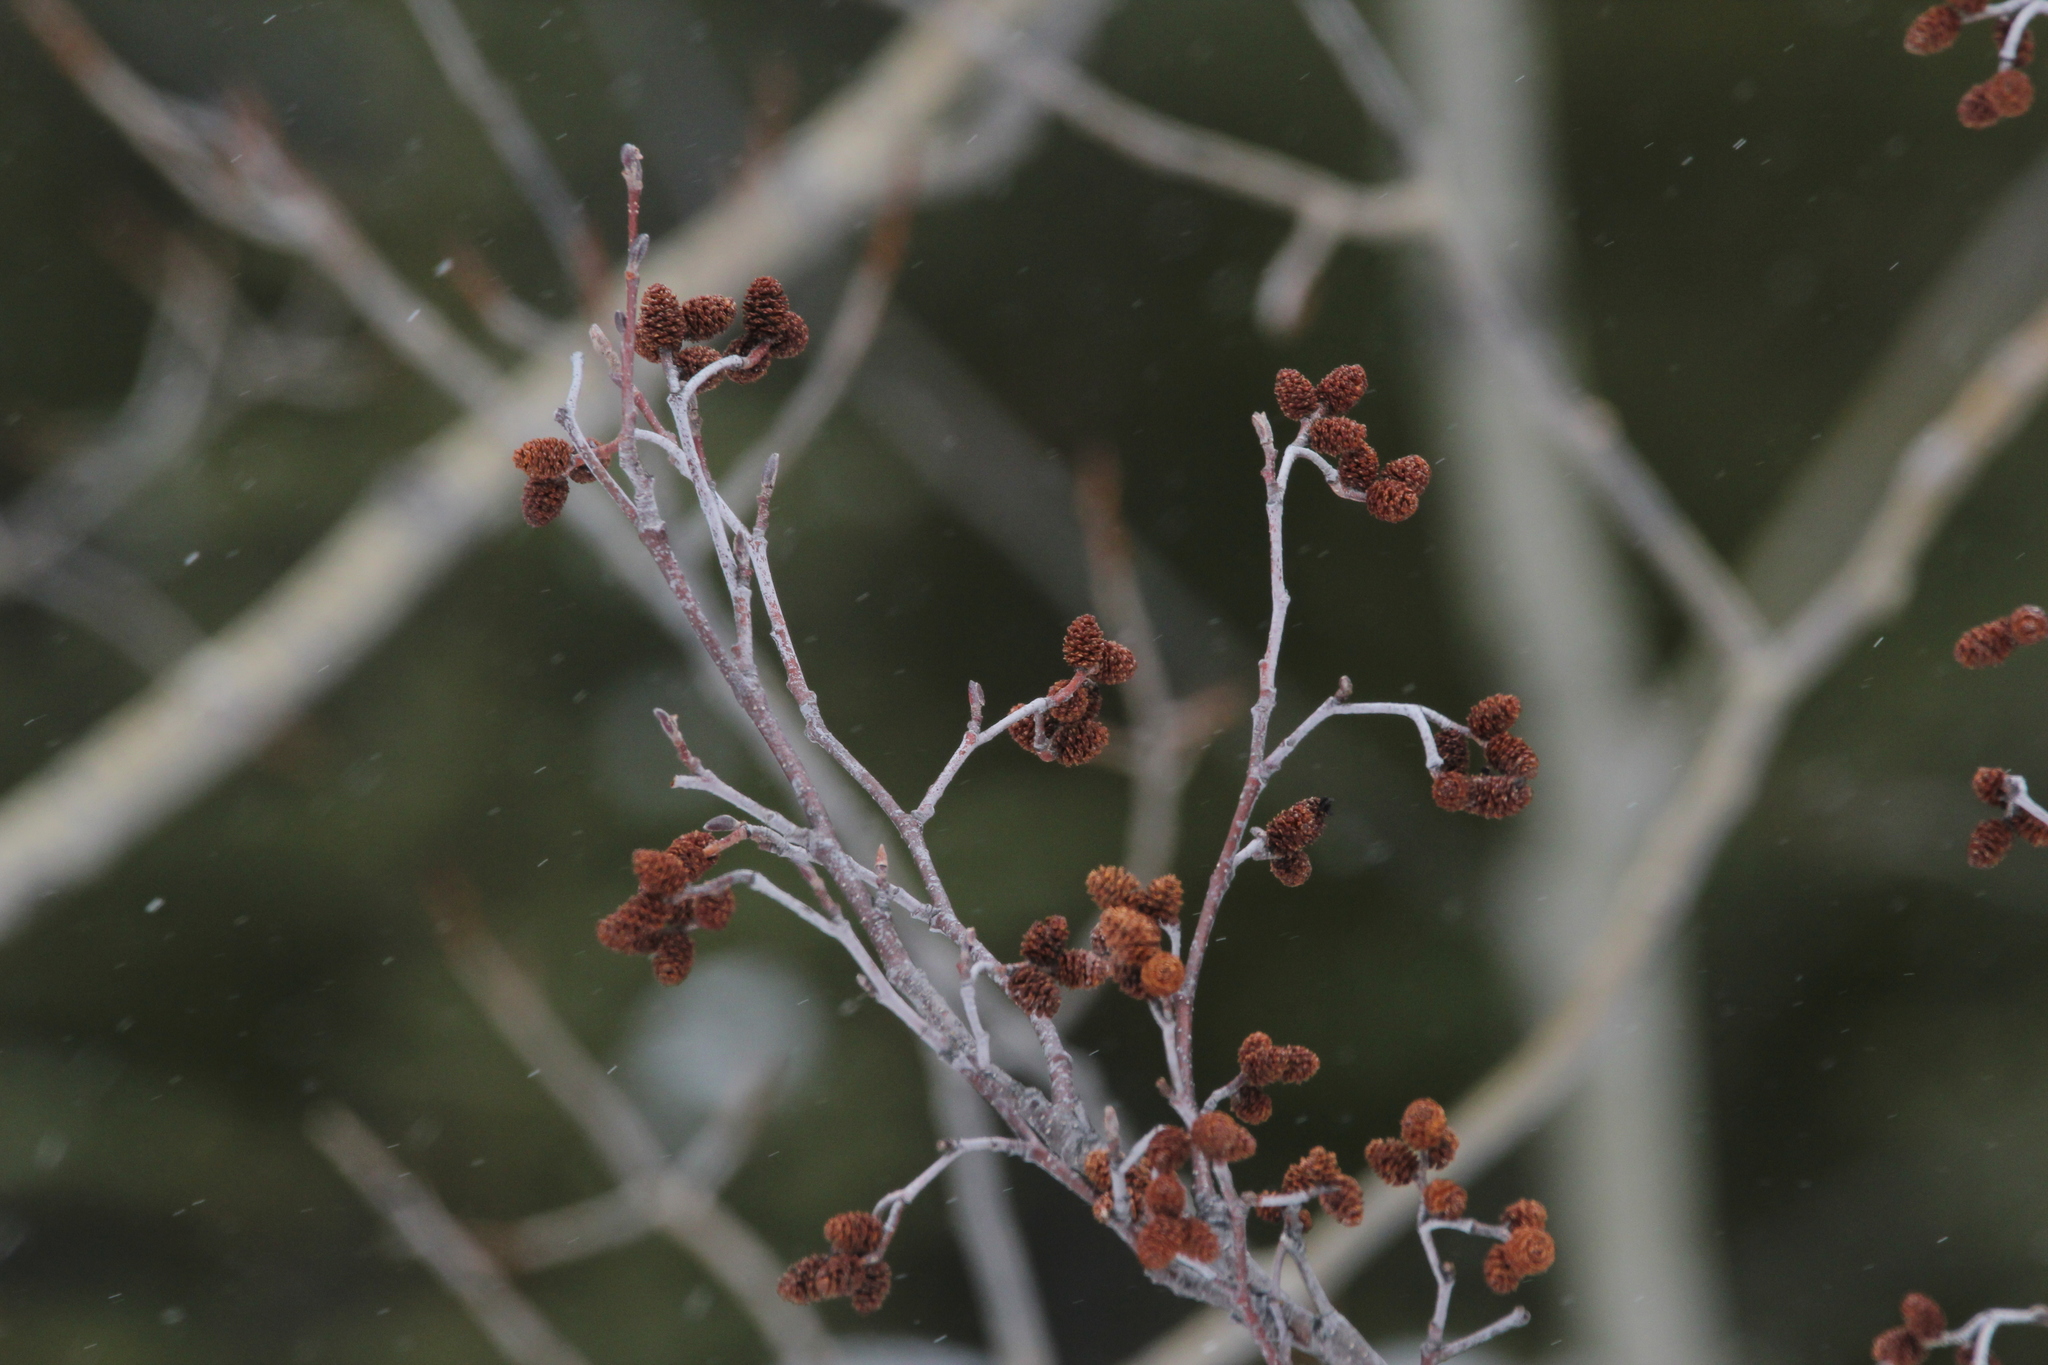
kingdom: Plantae
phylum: Tracheophyta
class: Magnoliopsida
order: Fagales
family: Betulaceae
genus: Alnus
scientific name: Alnus incana
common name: Grey alder
